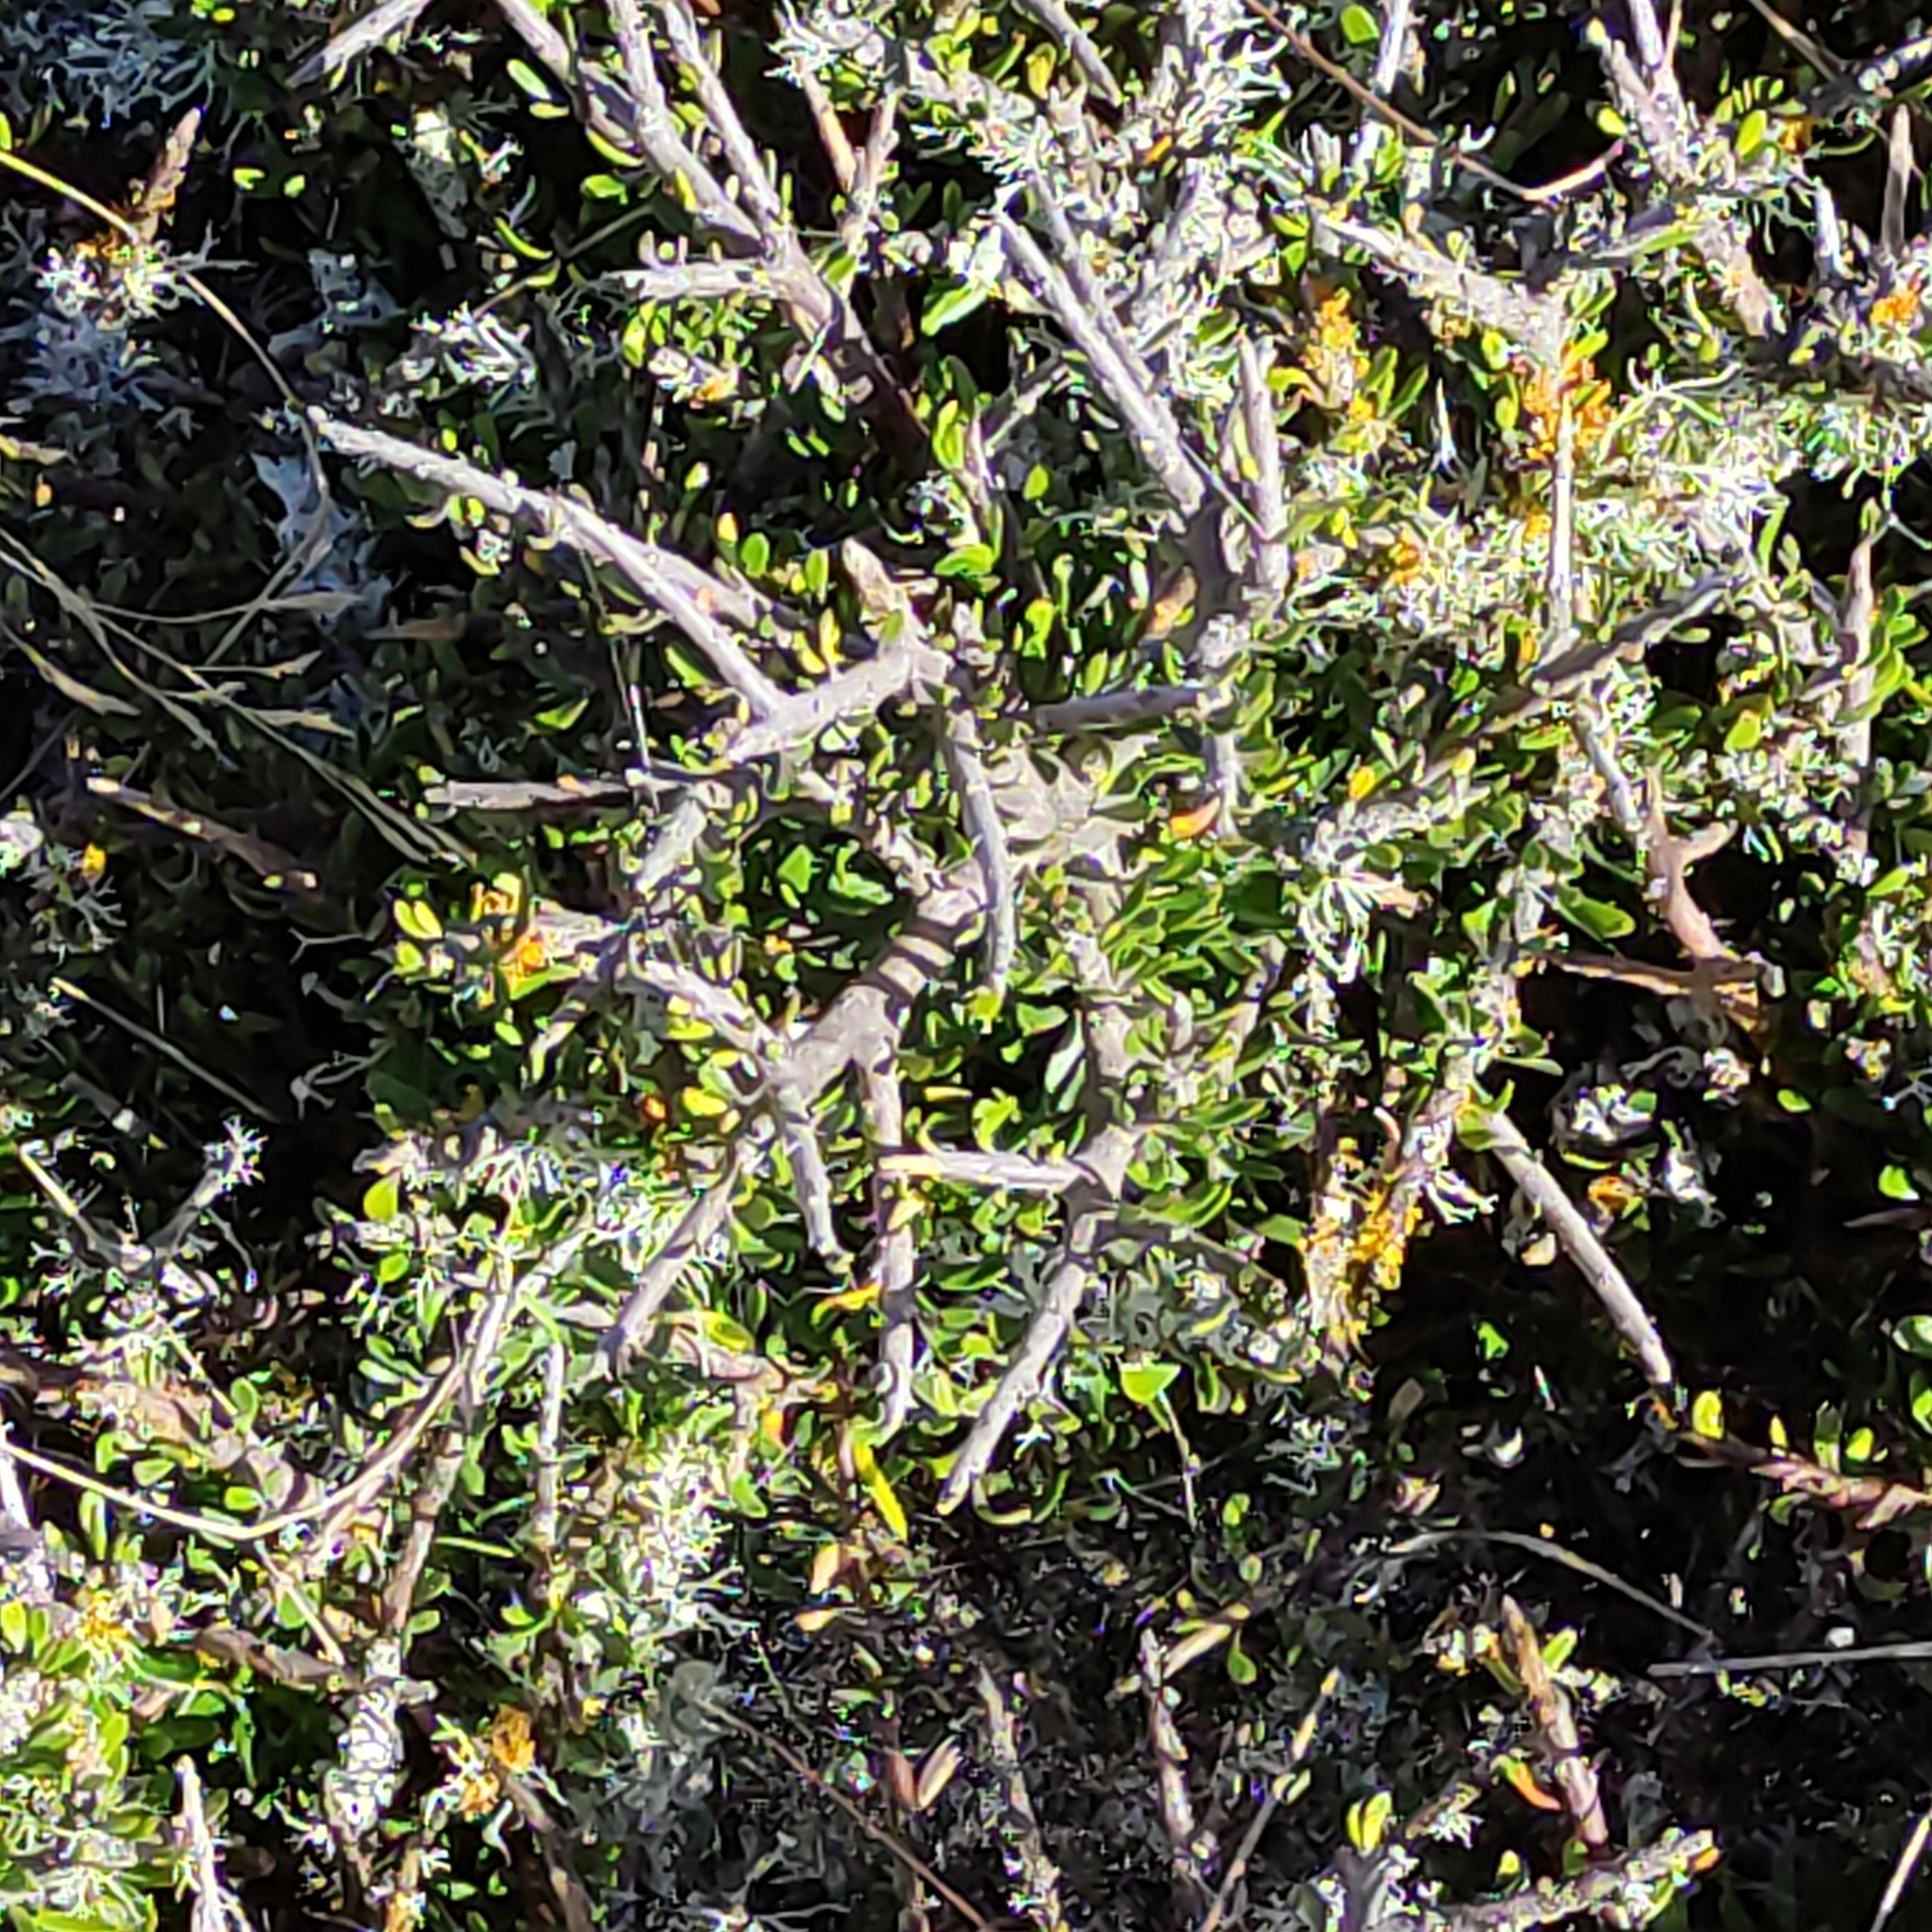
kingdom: Plantae
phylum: Tracheophyta
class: Magnoliopsida
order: Malpighiales
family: Violaceae
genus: Melicytus
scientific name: Melicytus alpinus
